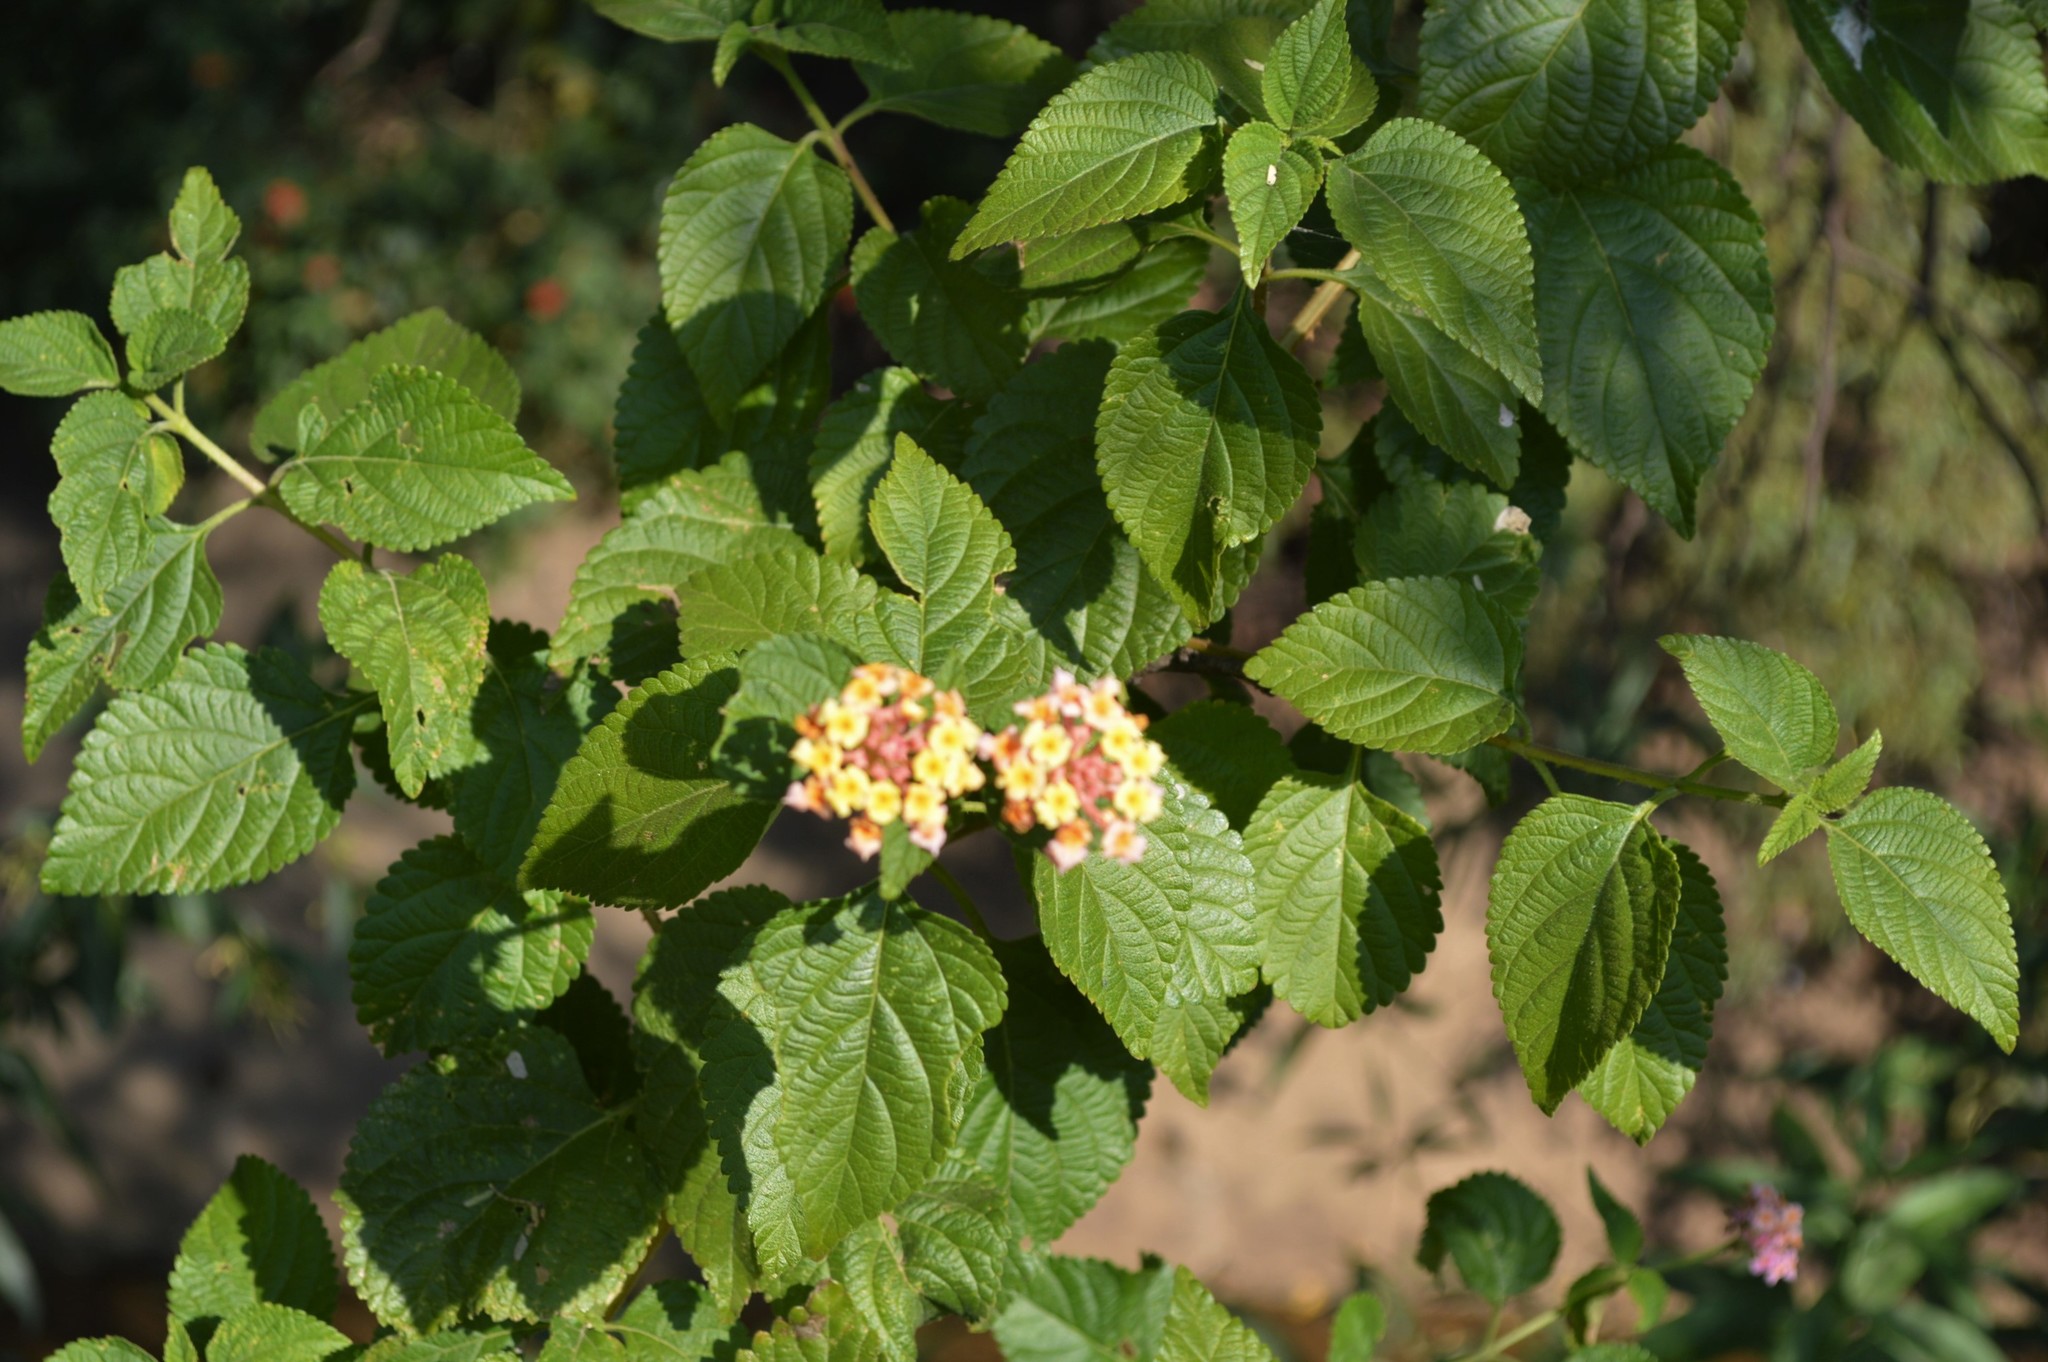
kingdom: Plantae
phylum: Tracheophyta
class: Magnoliopsida
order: Lamiales
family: Verbenaceae
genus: Lantana
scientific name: Lantana camara
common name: Lantana
